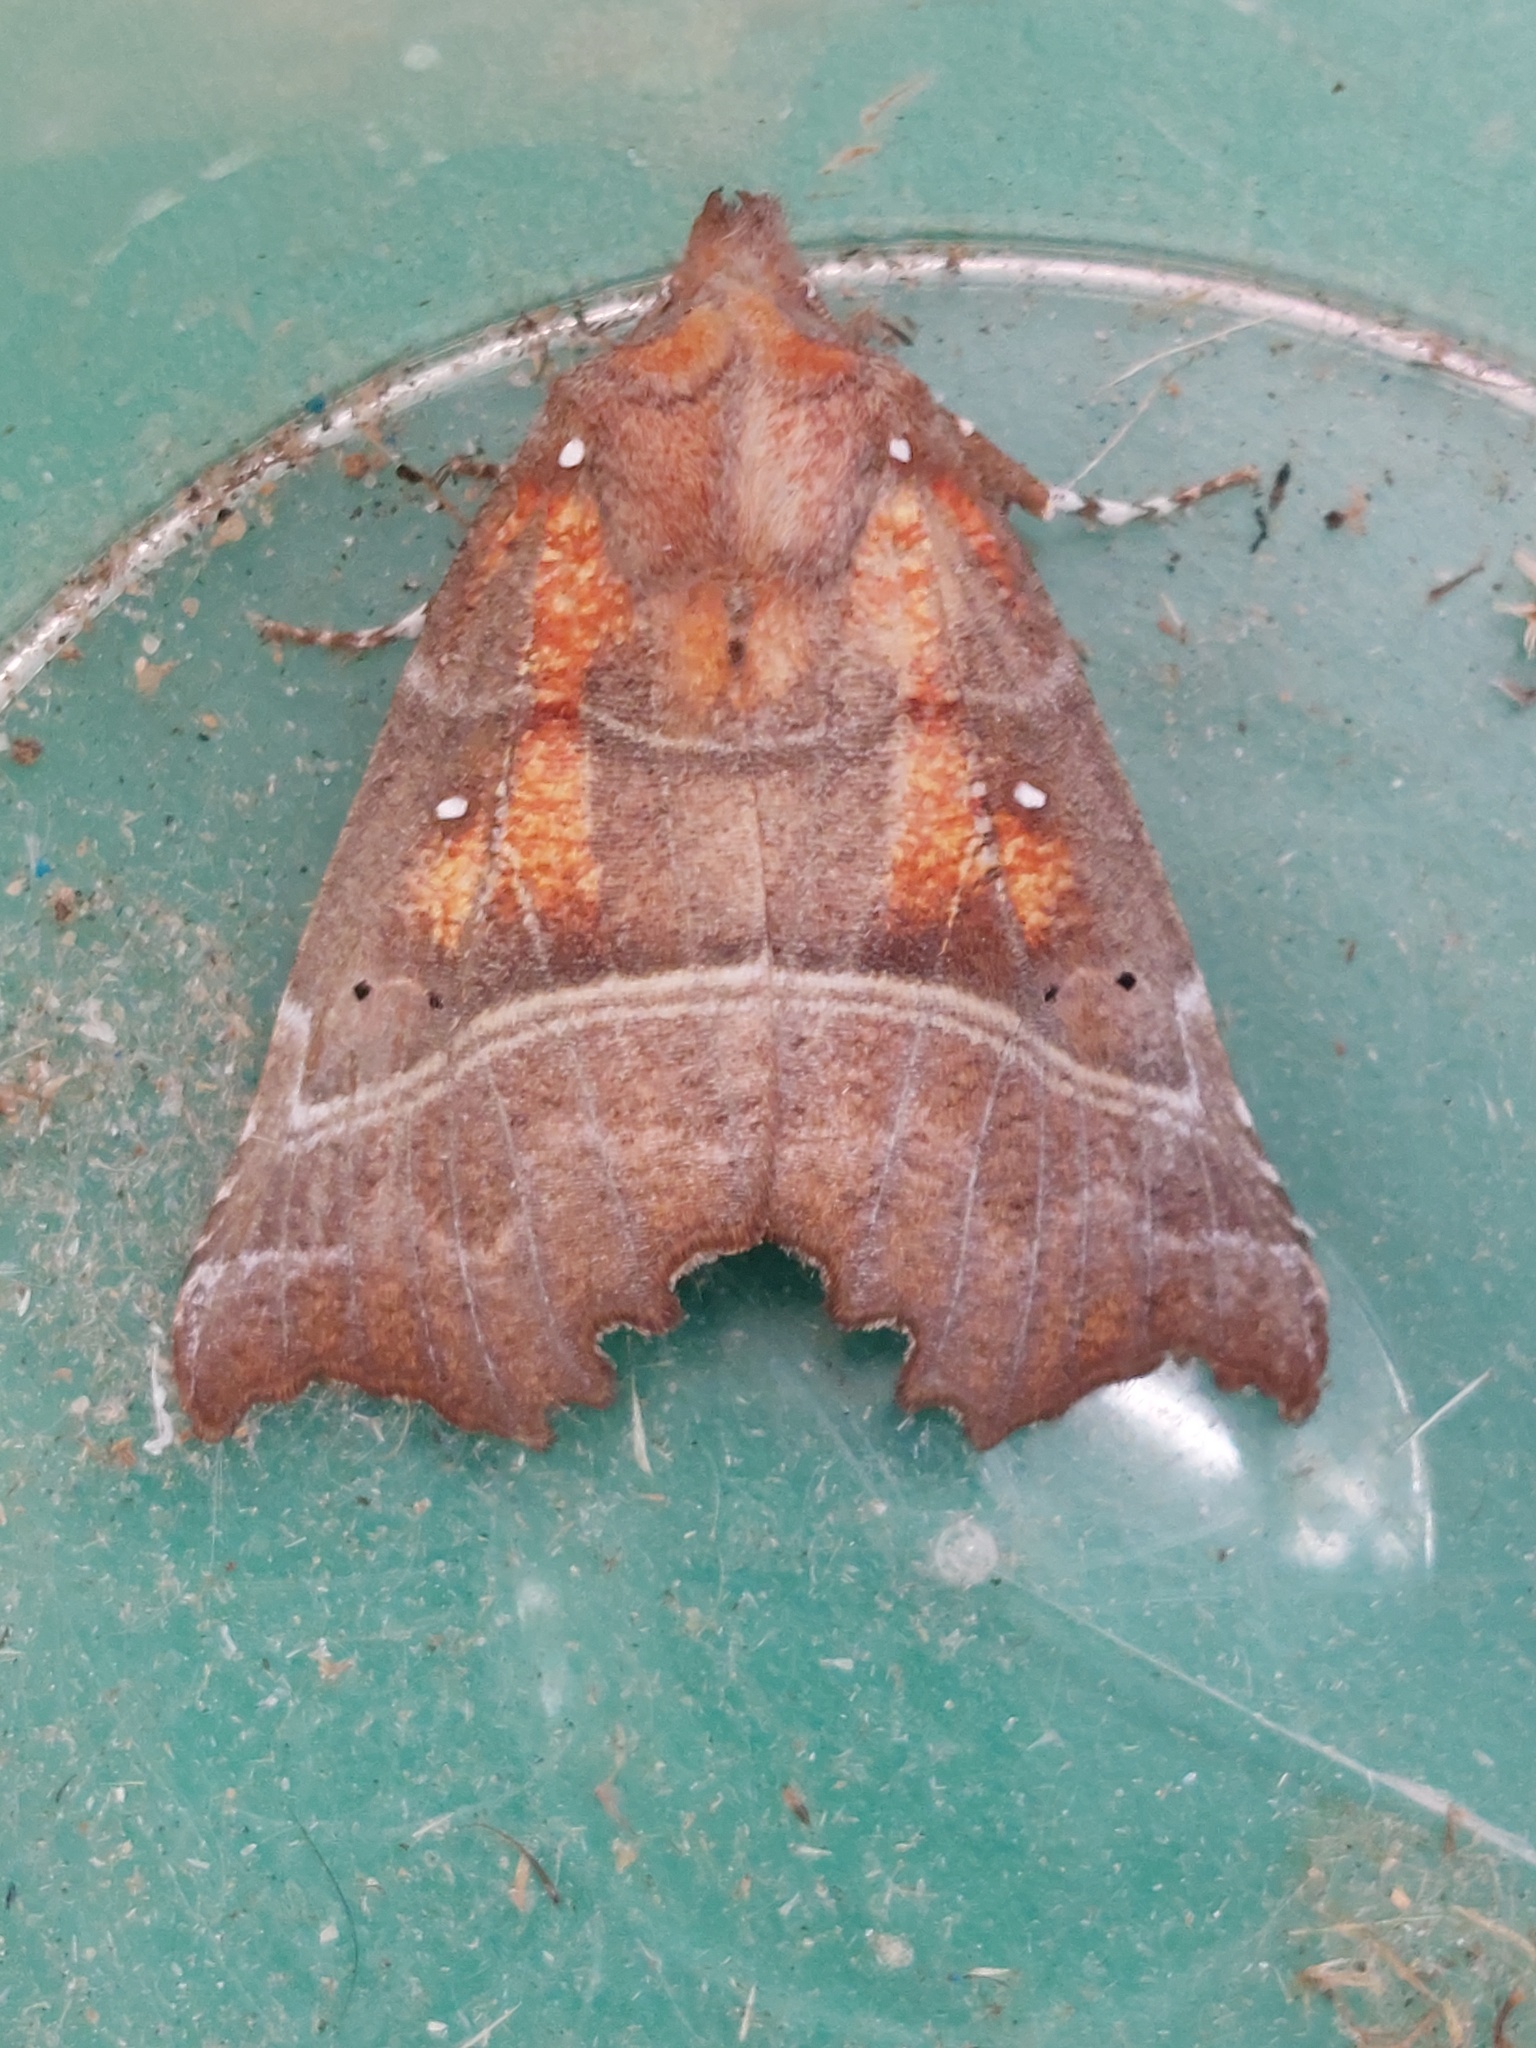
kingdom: Animalia
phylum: Arthropoda
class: Insecta
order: Lepidoptera
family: Erebidae
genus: Scoliopteryx
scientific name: Scoliopteryx libatrix
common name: Herald
